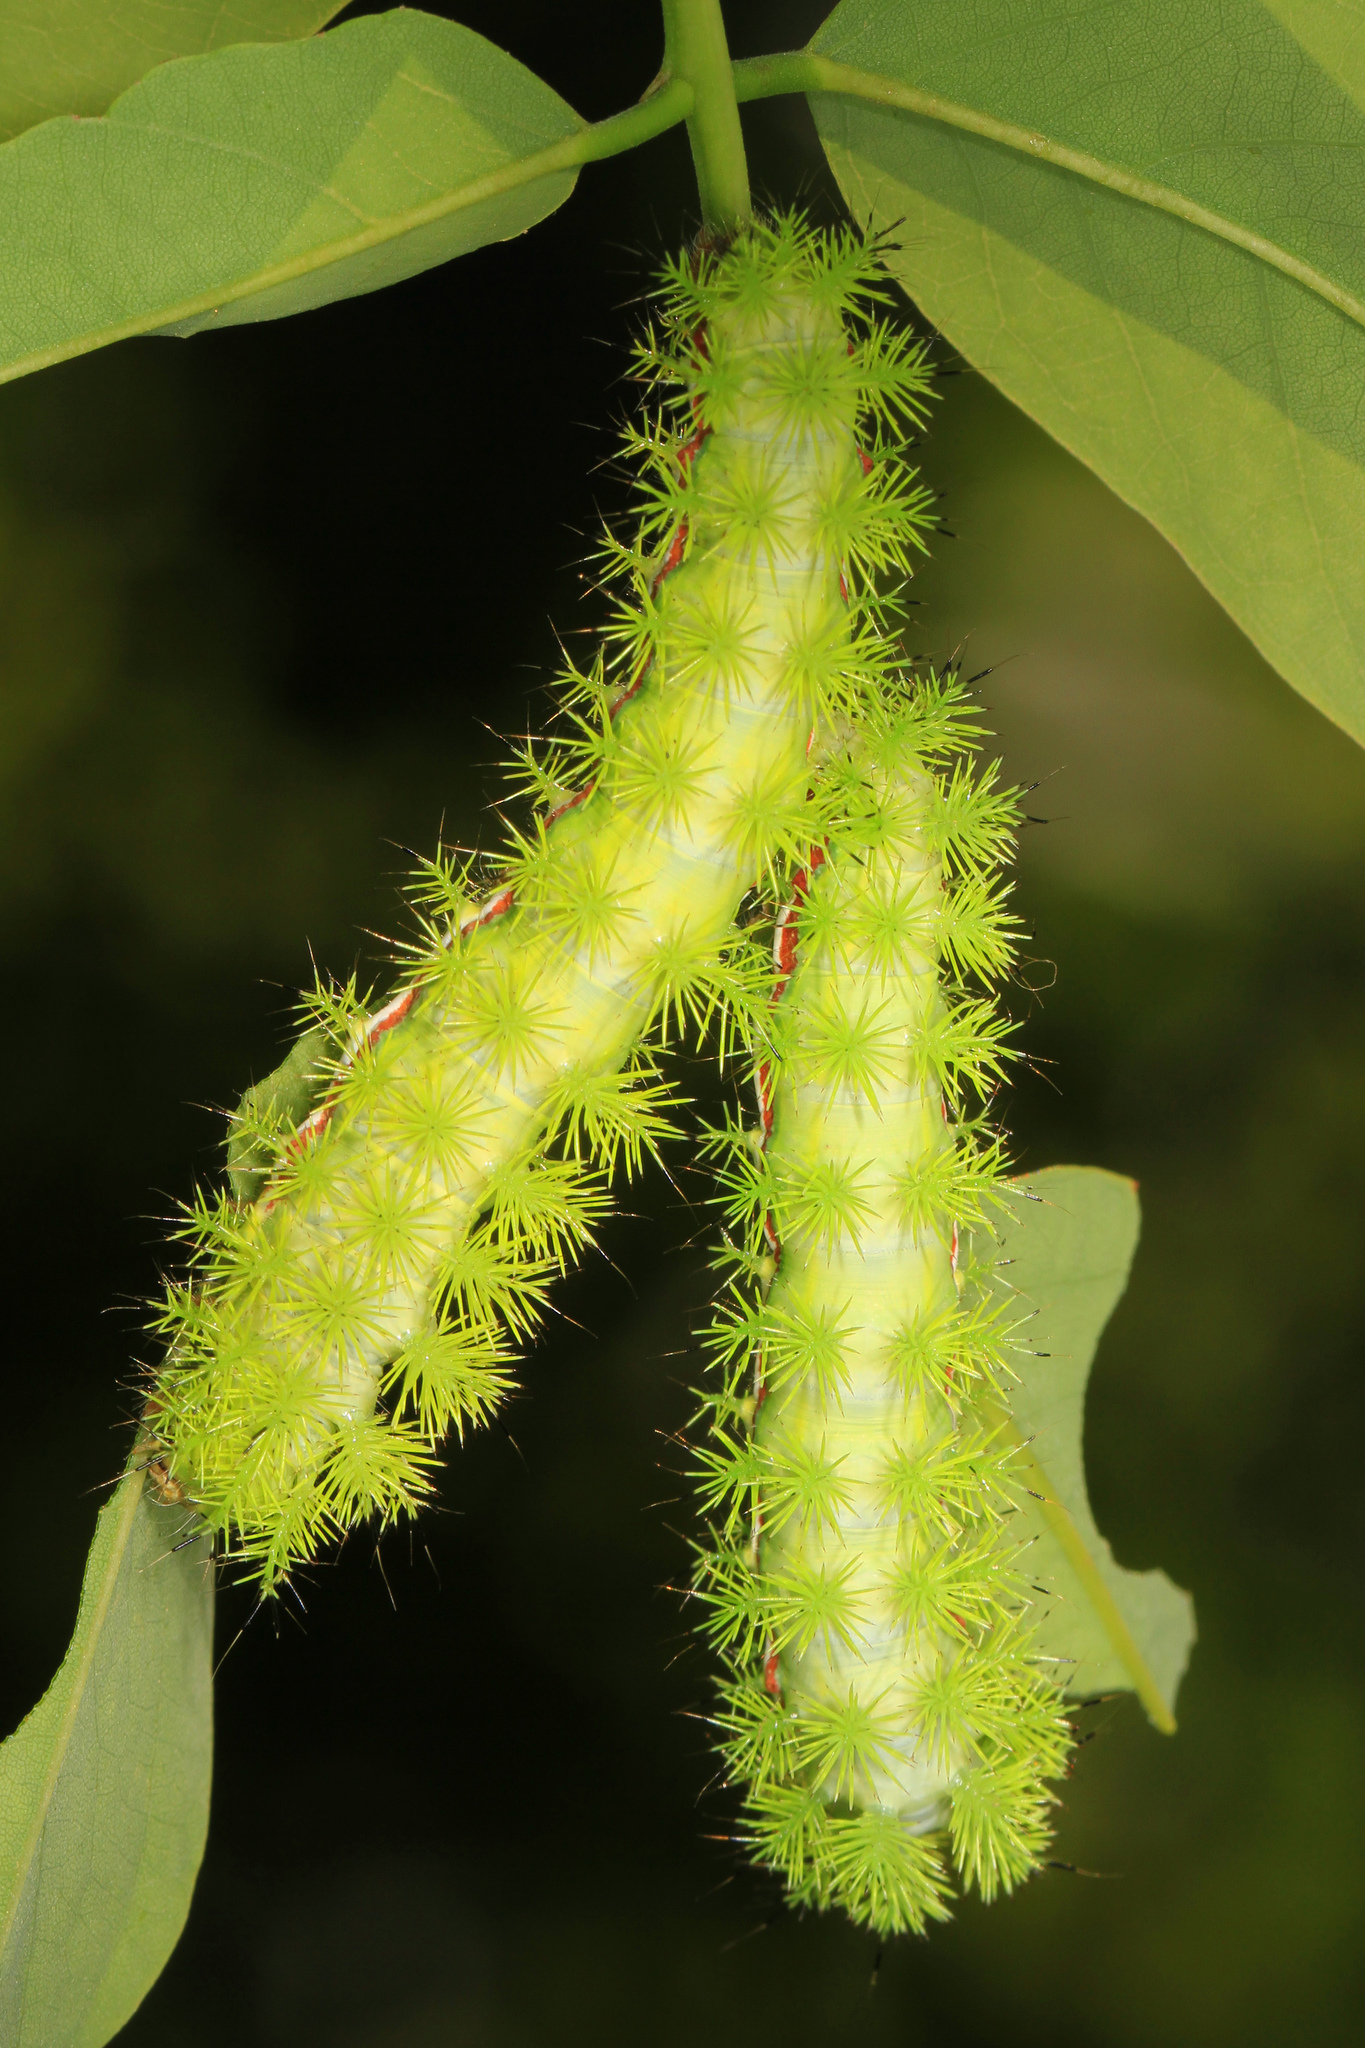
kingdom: Animalia
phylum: Arthropoda
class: Insecta
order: Lepidoptera
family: Saturniidae
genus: Automeris
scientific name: Automeris io
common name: Io moth
